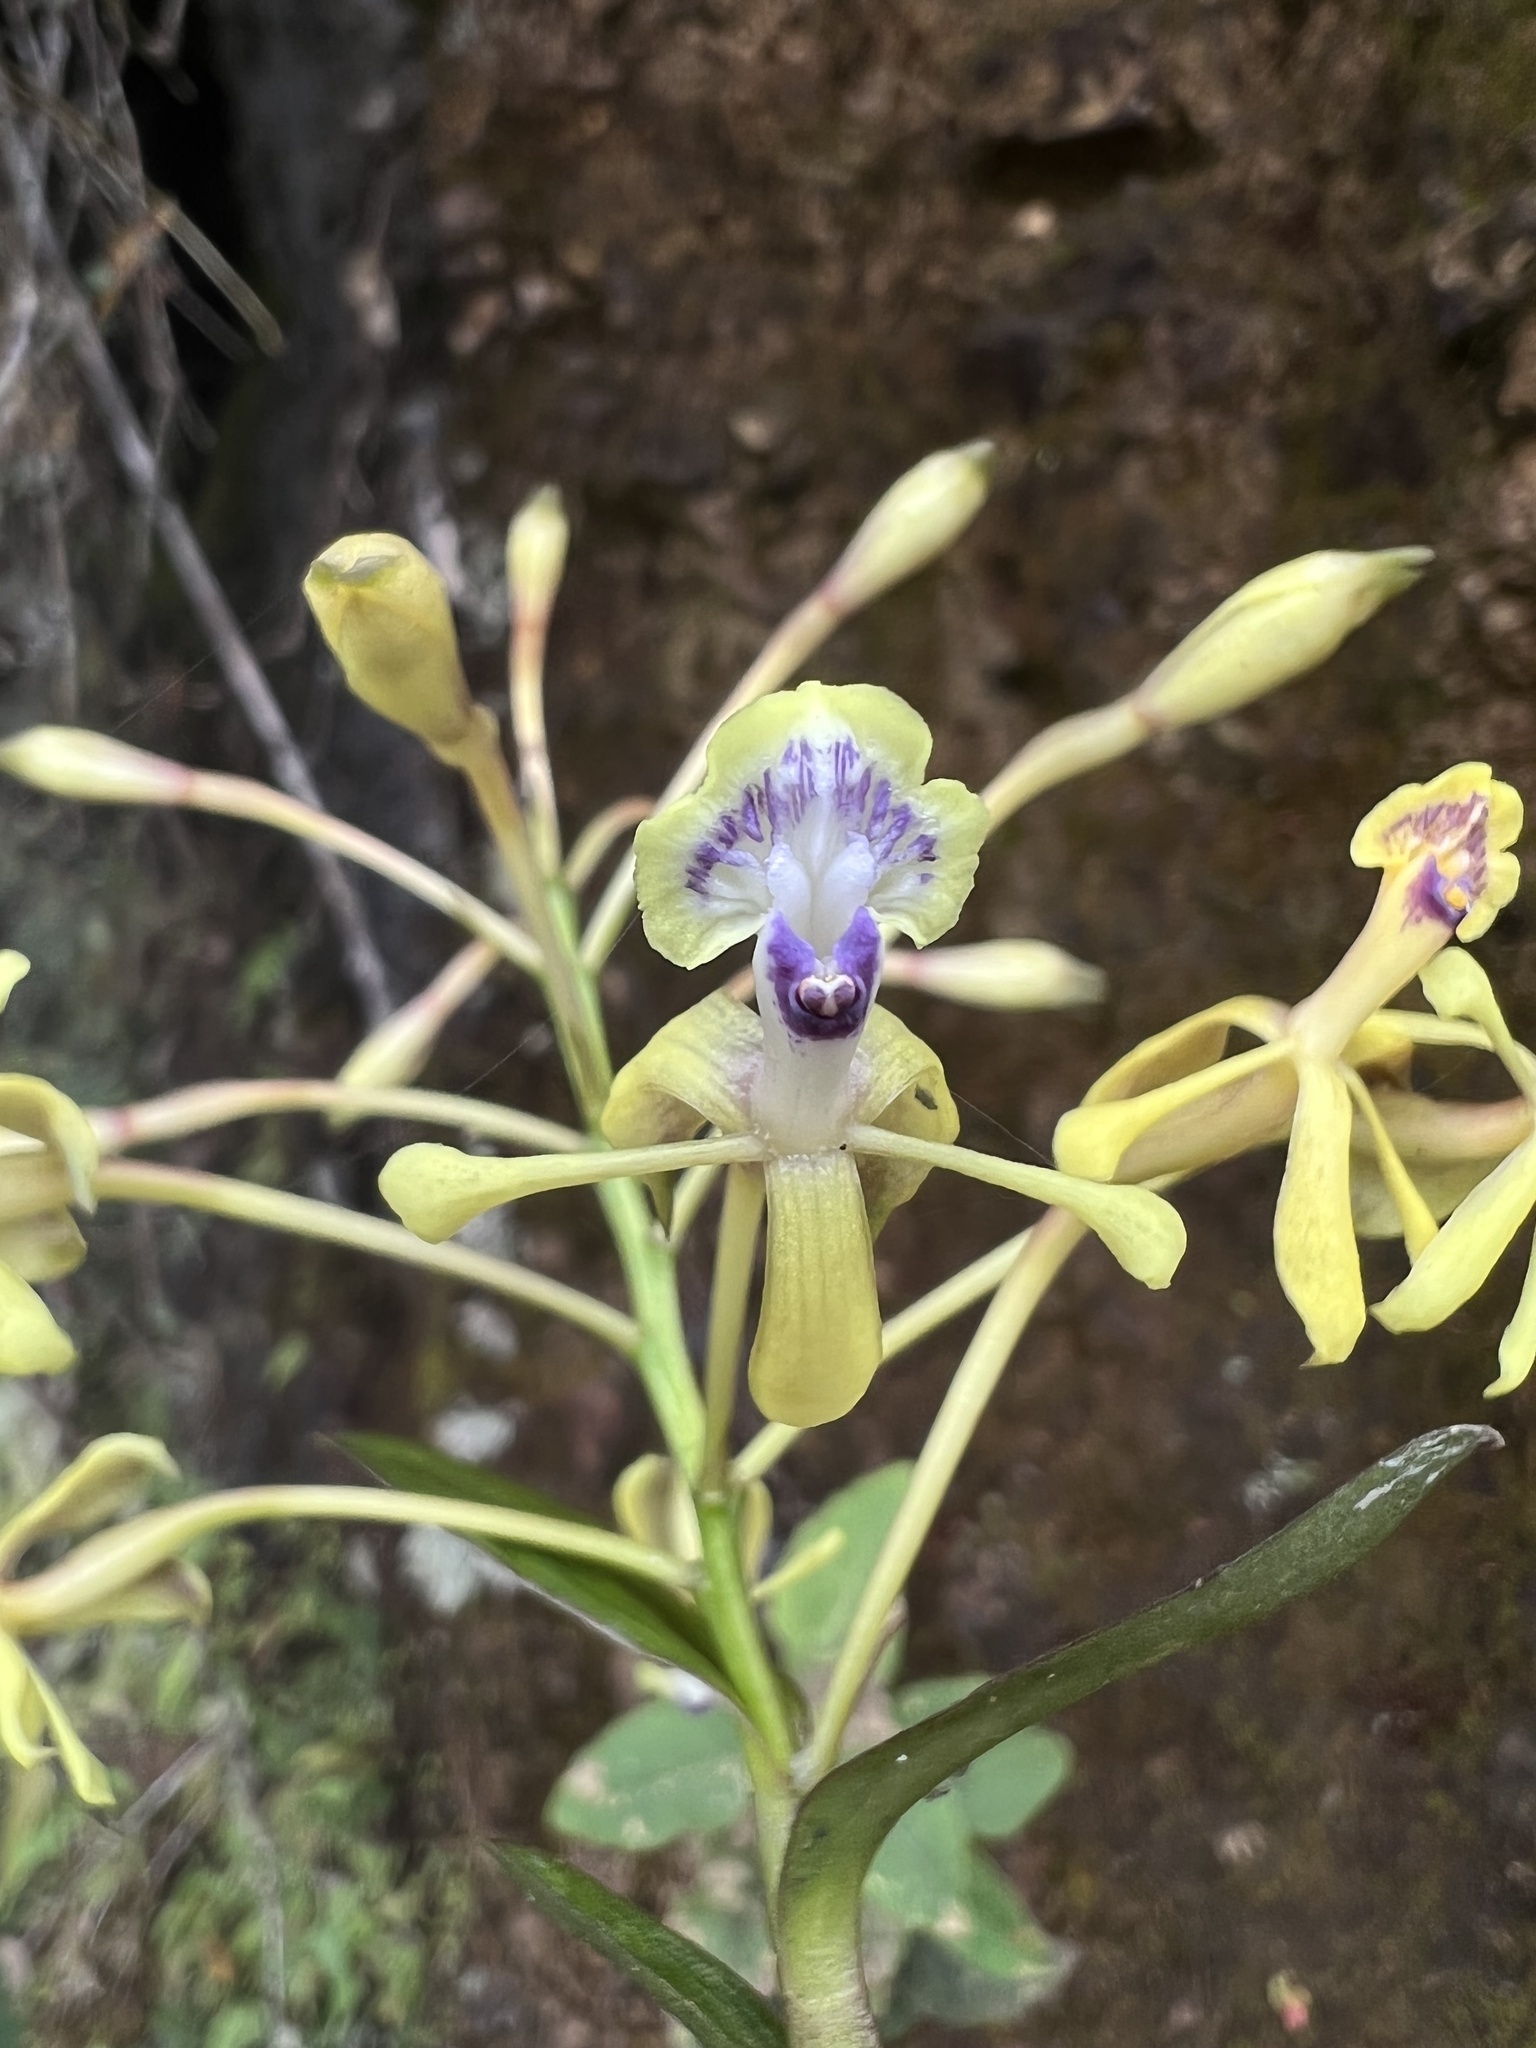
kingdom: Plantae
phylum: Tracheophyta
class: Liliopsida
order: Asparagales
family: Orchidaceae
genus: Epidendrum
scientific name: Epidendrum scytocladium
